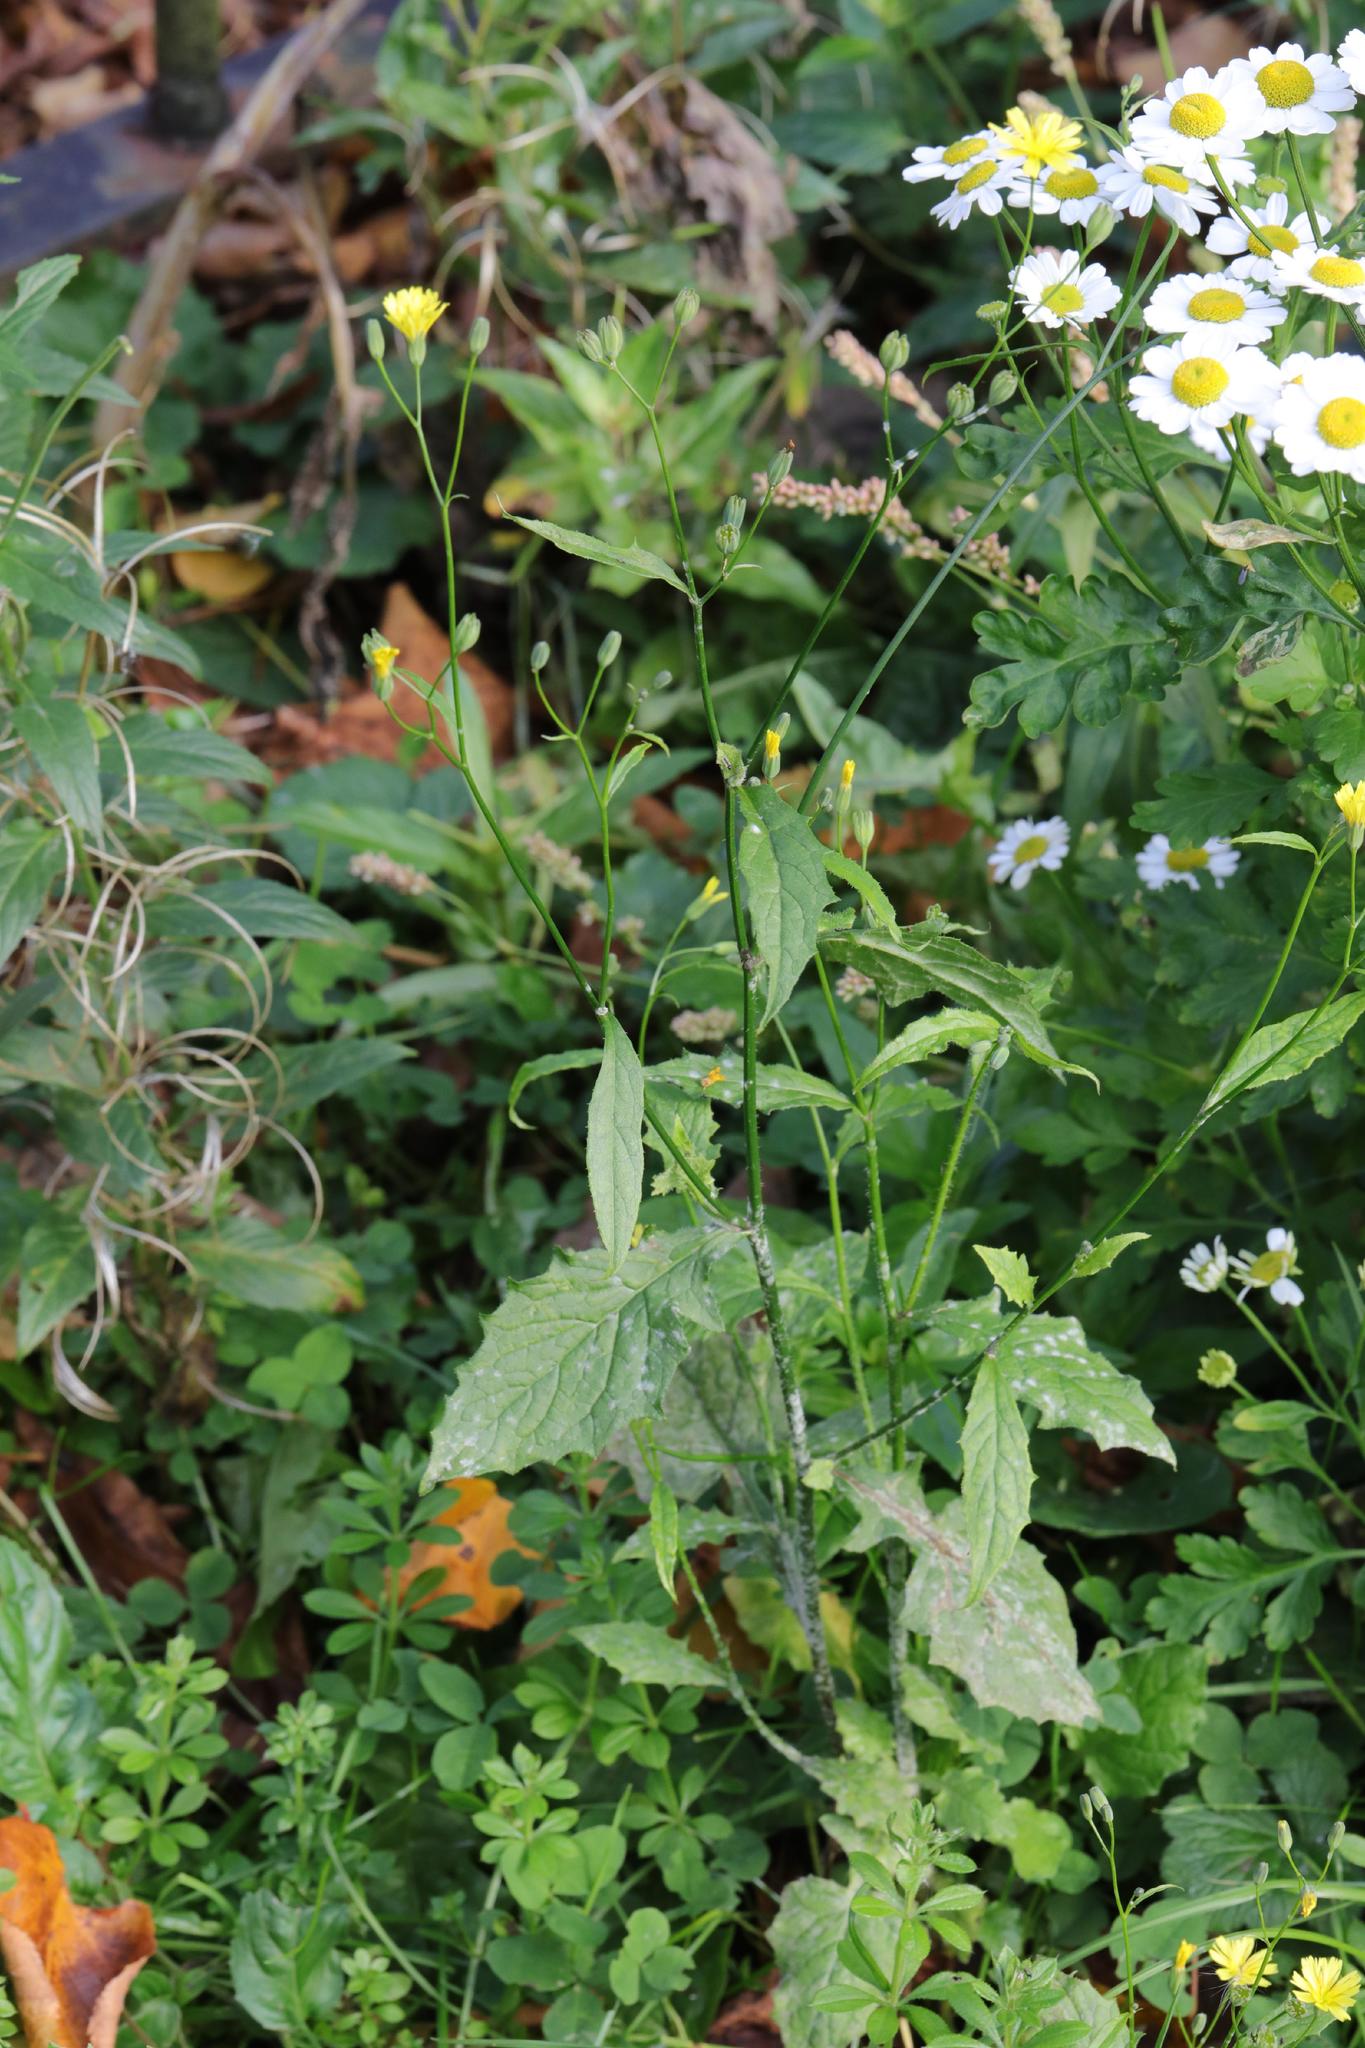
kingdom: Plantae
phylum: Tracheophyta
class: Magnoliopsida
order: Asterales
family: Asteraceae
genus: Lapsana
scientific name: Lapsana communis
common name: Nipplewort
